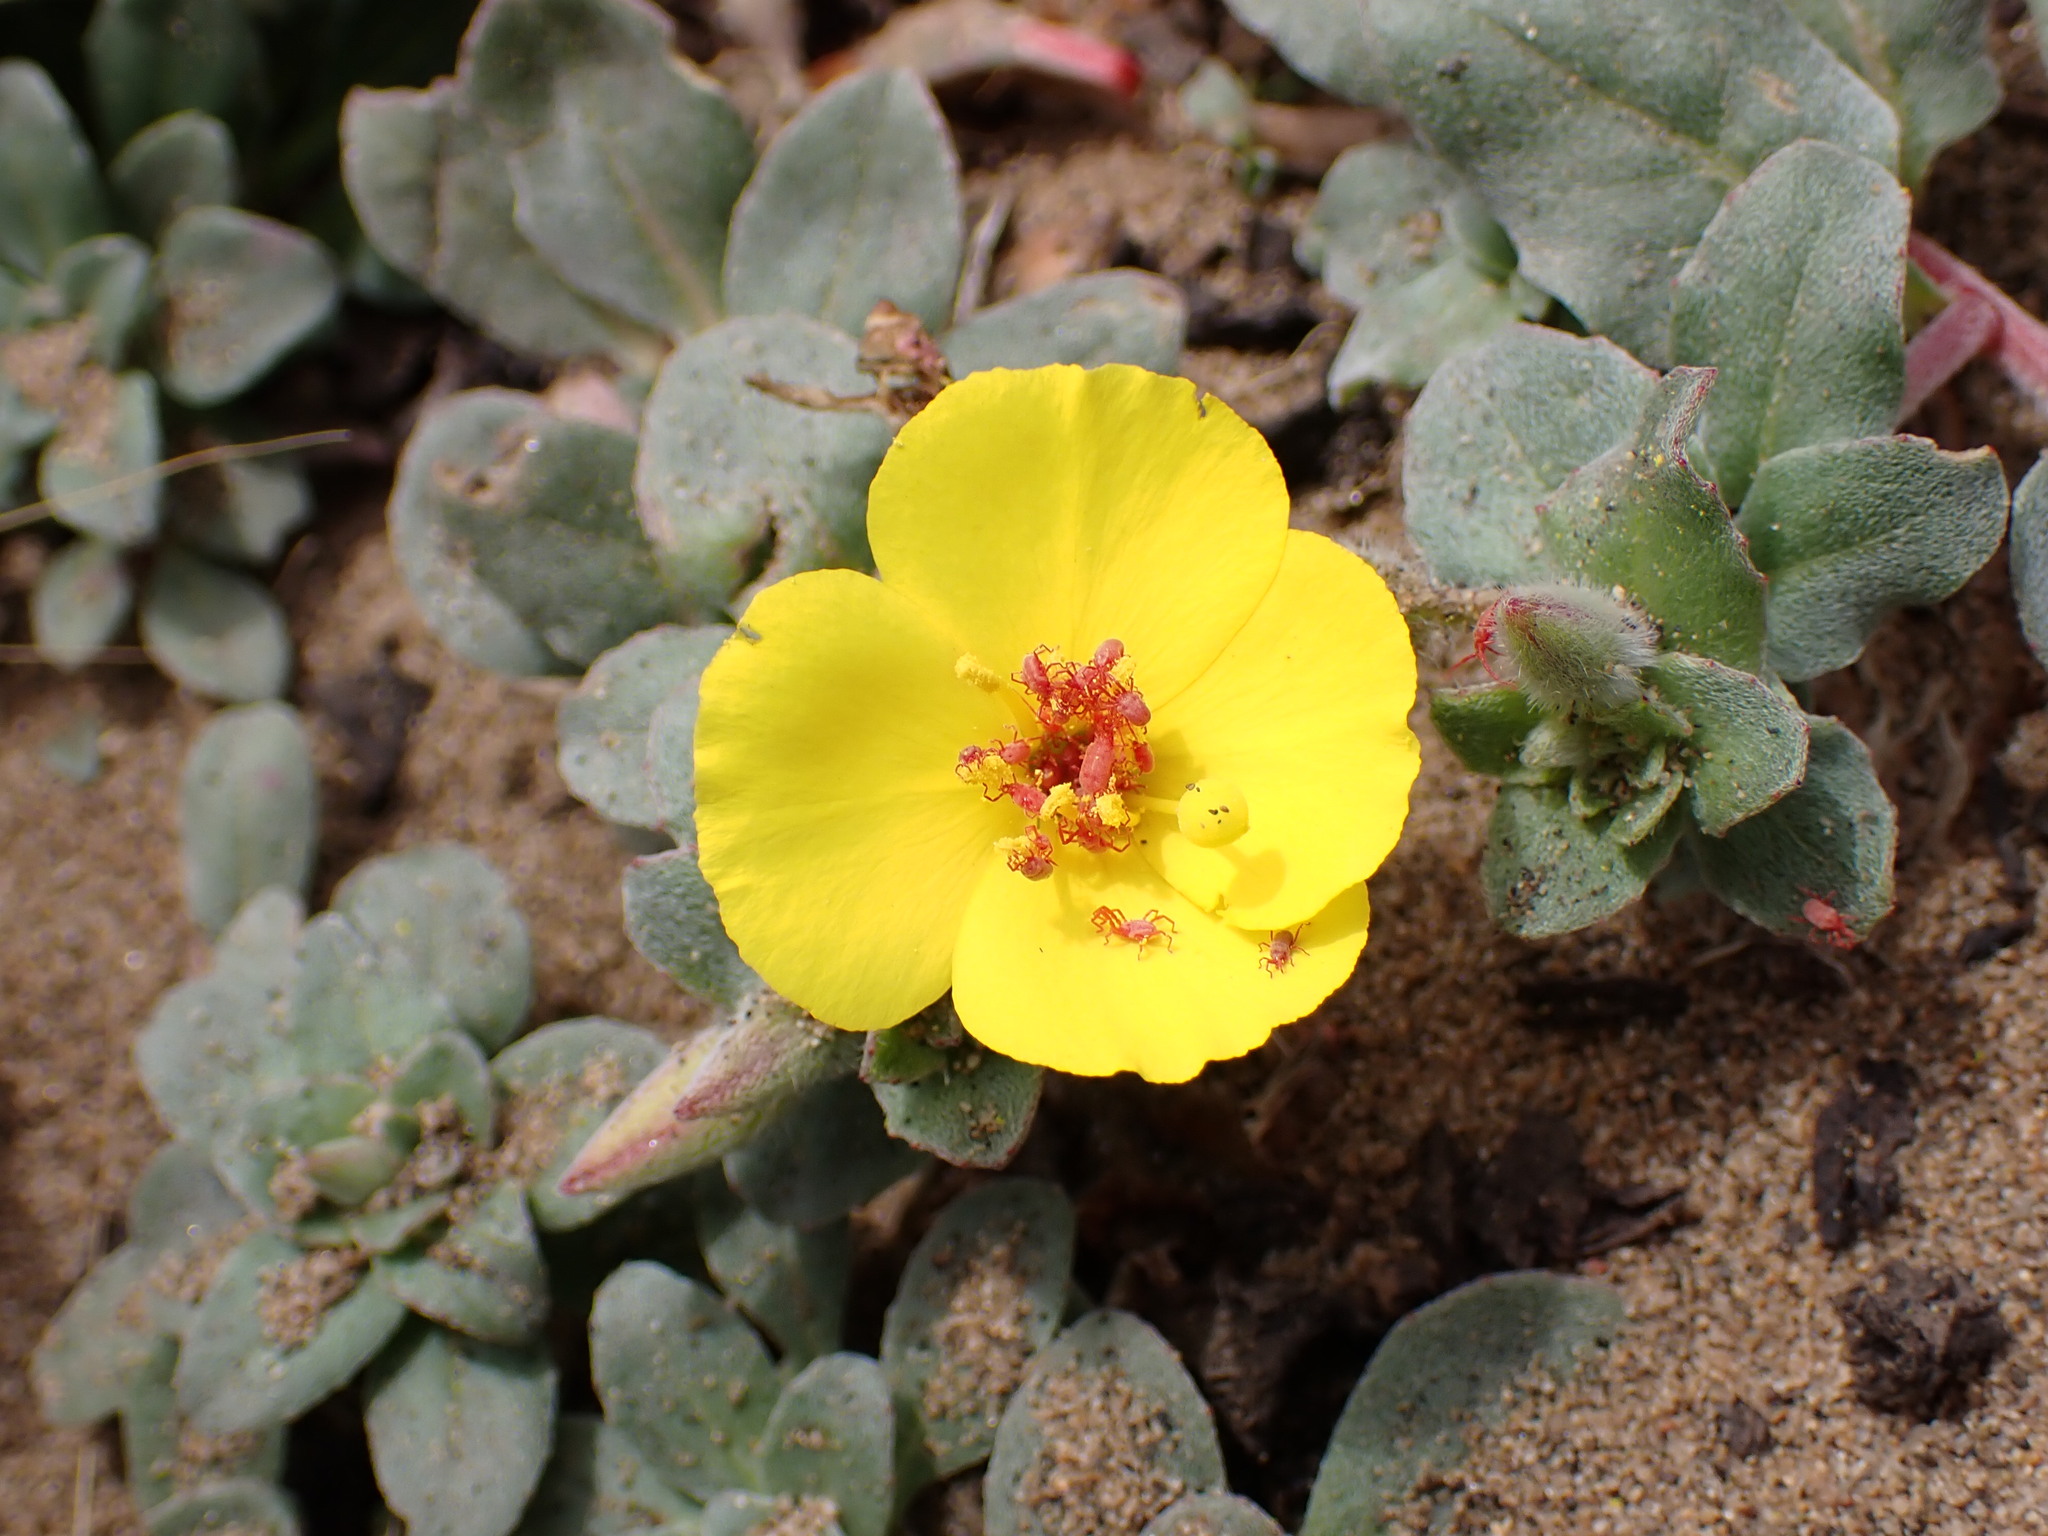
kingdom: Plantae
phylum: Tracheophyta
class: Magnoliopsida
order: Myrtales
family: Onagraceae
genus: Camissoniopsis
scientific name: Camissoniopsis cheiranthifolia
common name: Beach suncup
